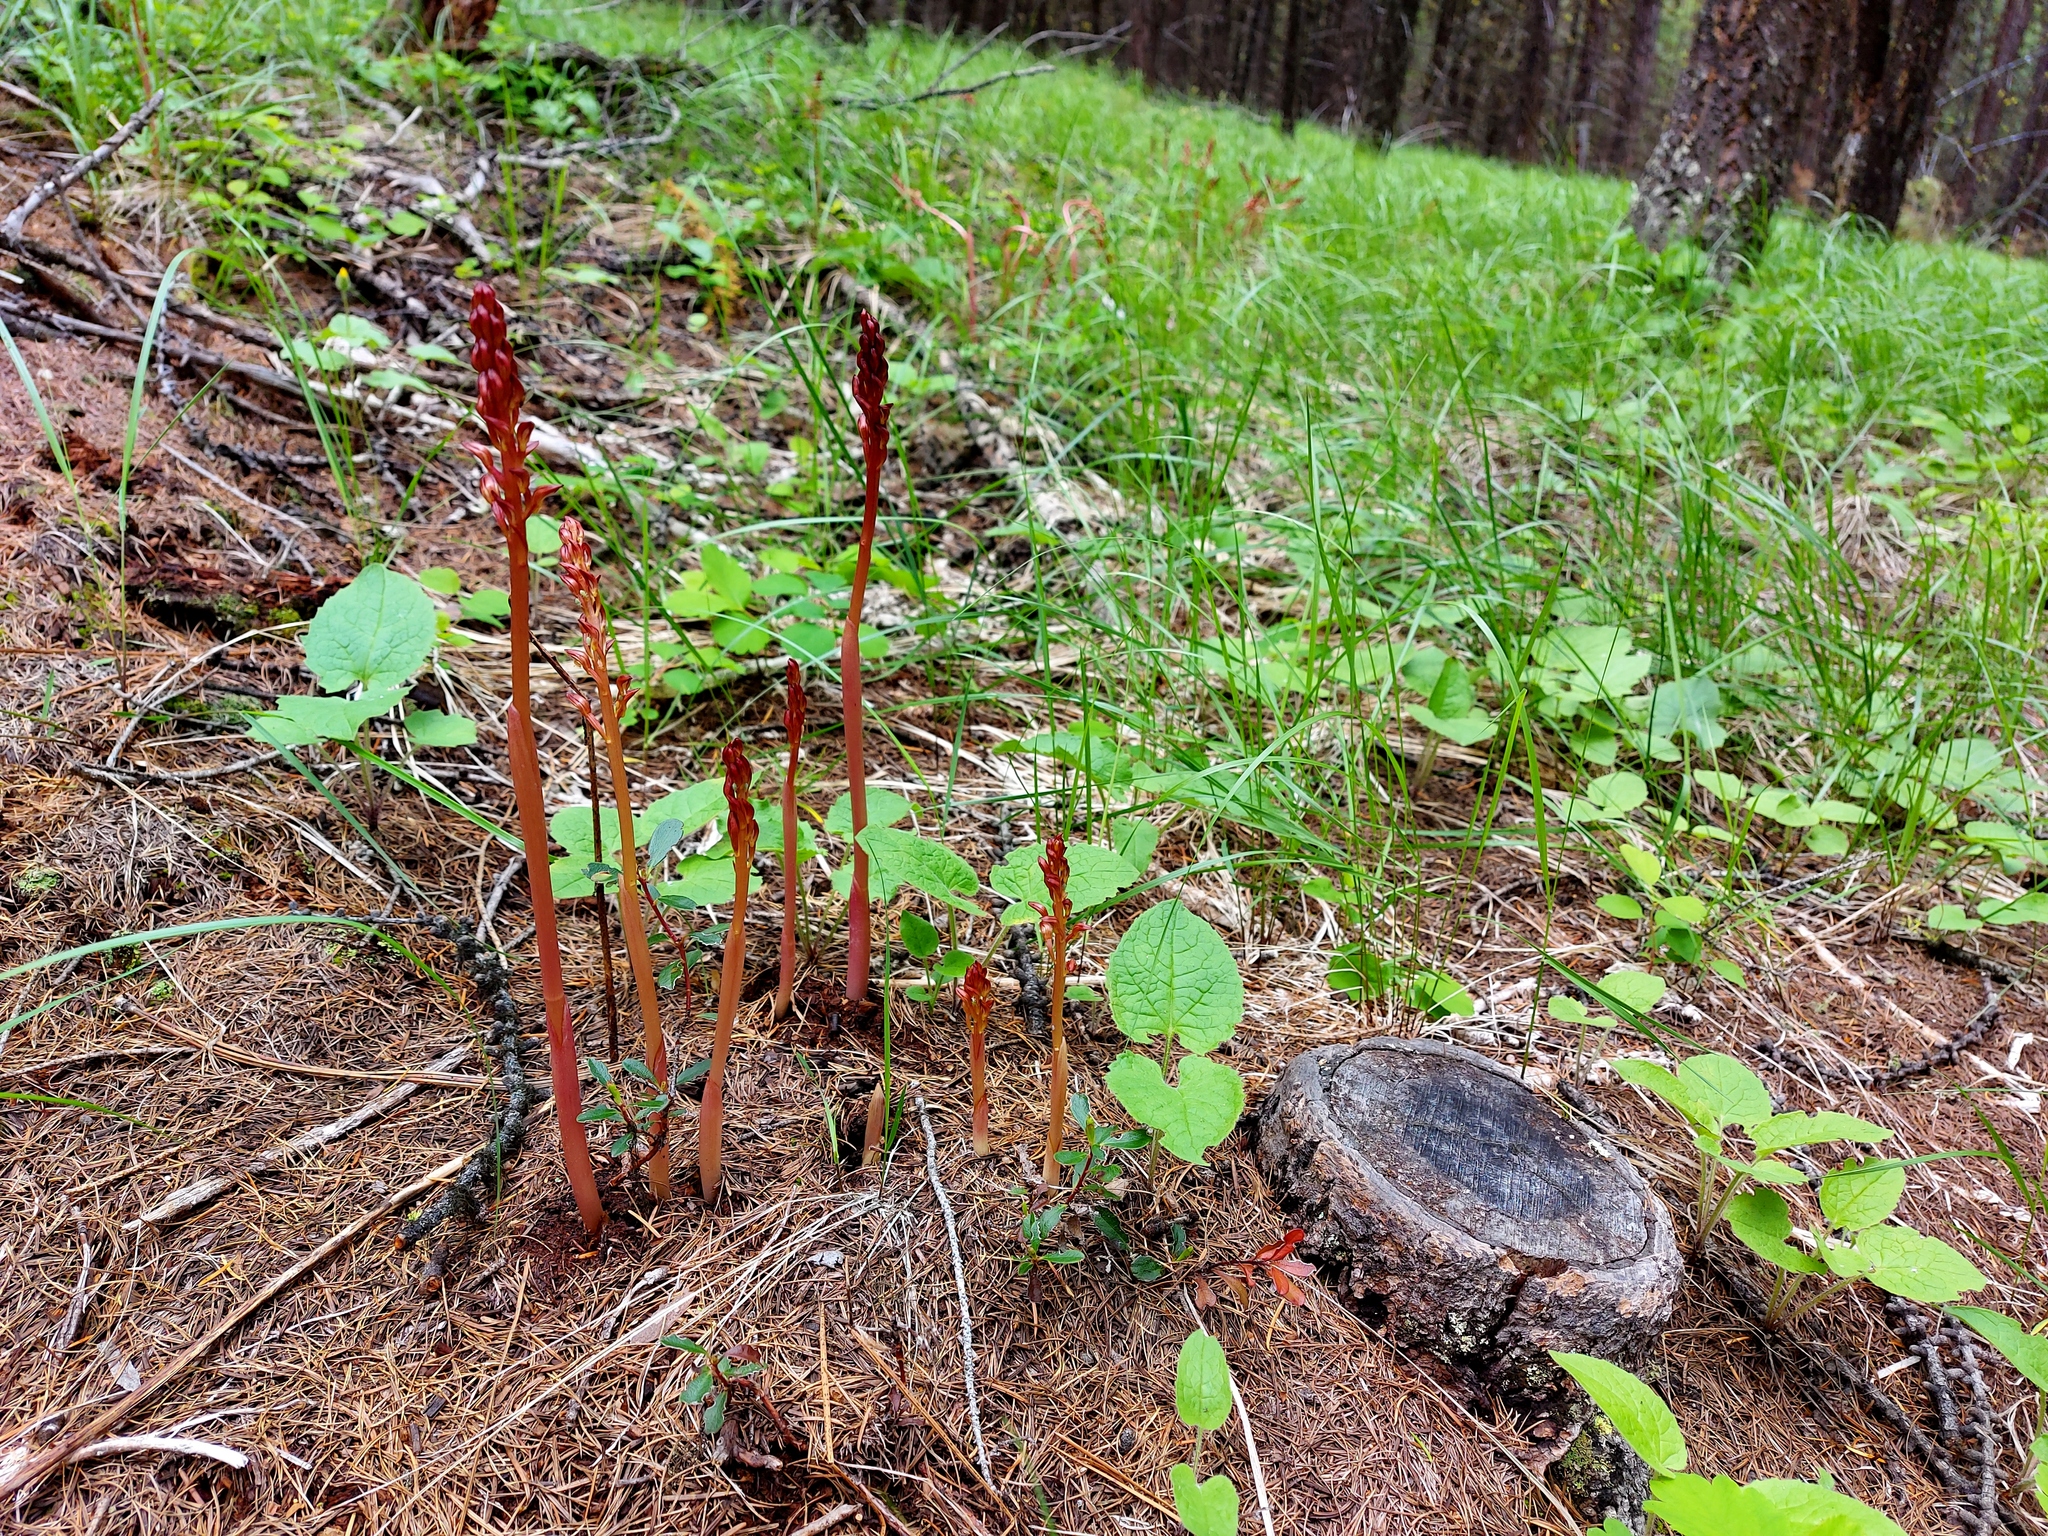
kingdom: Plantae
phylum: Tracheophyta
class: Liliopsida
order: Asparagales
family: Orchidaceae
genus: Corallorhiza
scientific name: Corallorhiza maculata
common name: Spotted coralroot
